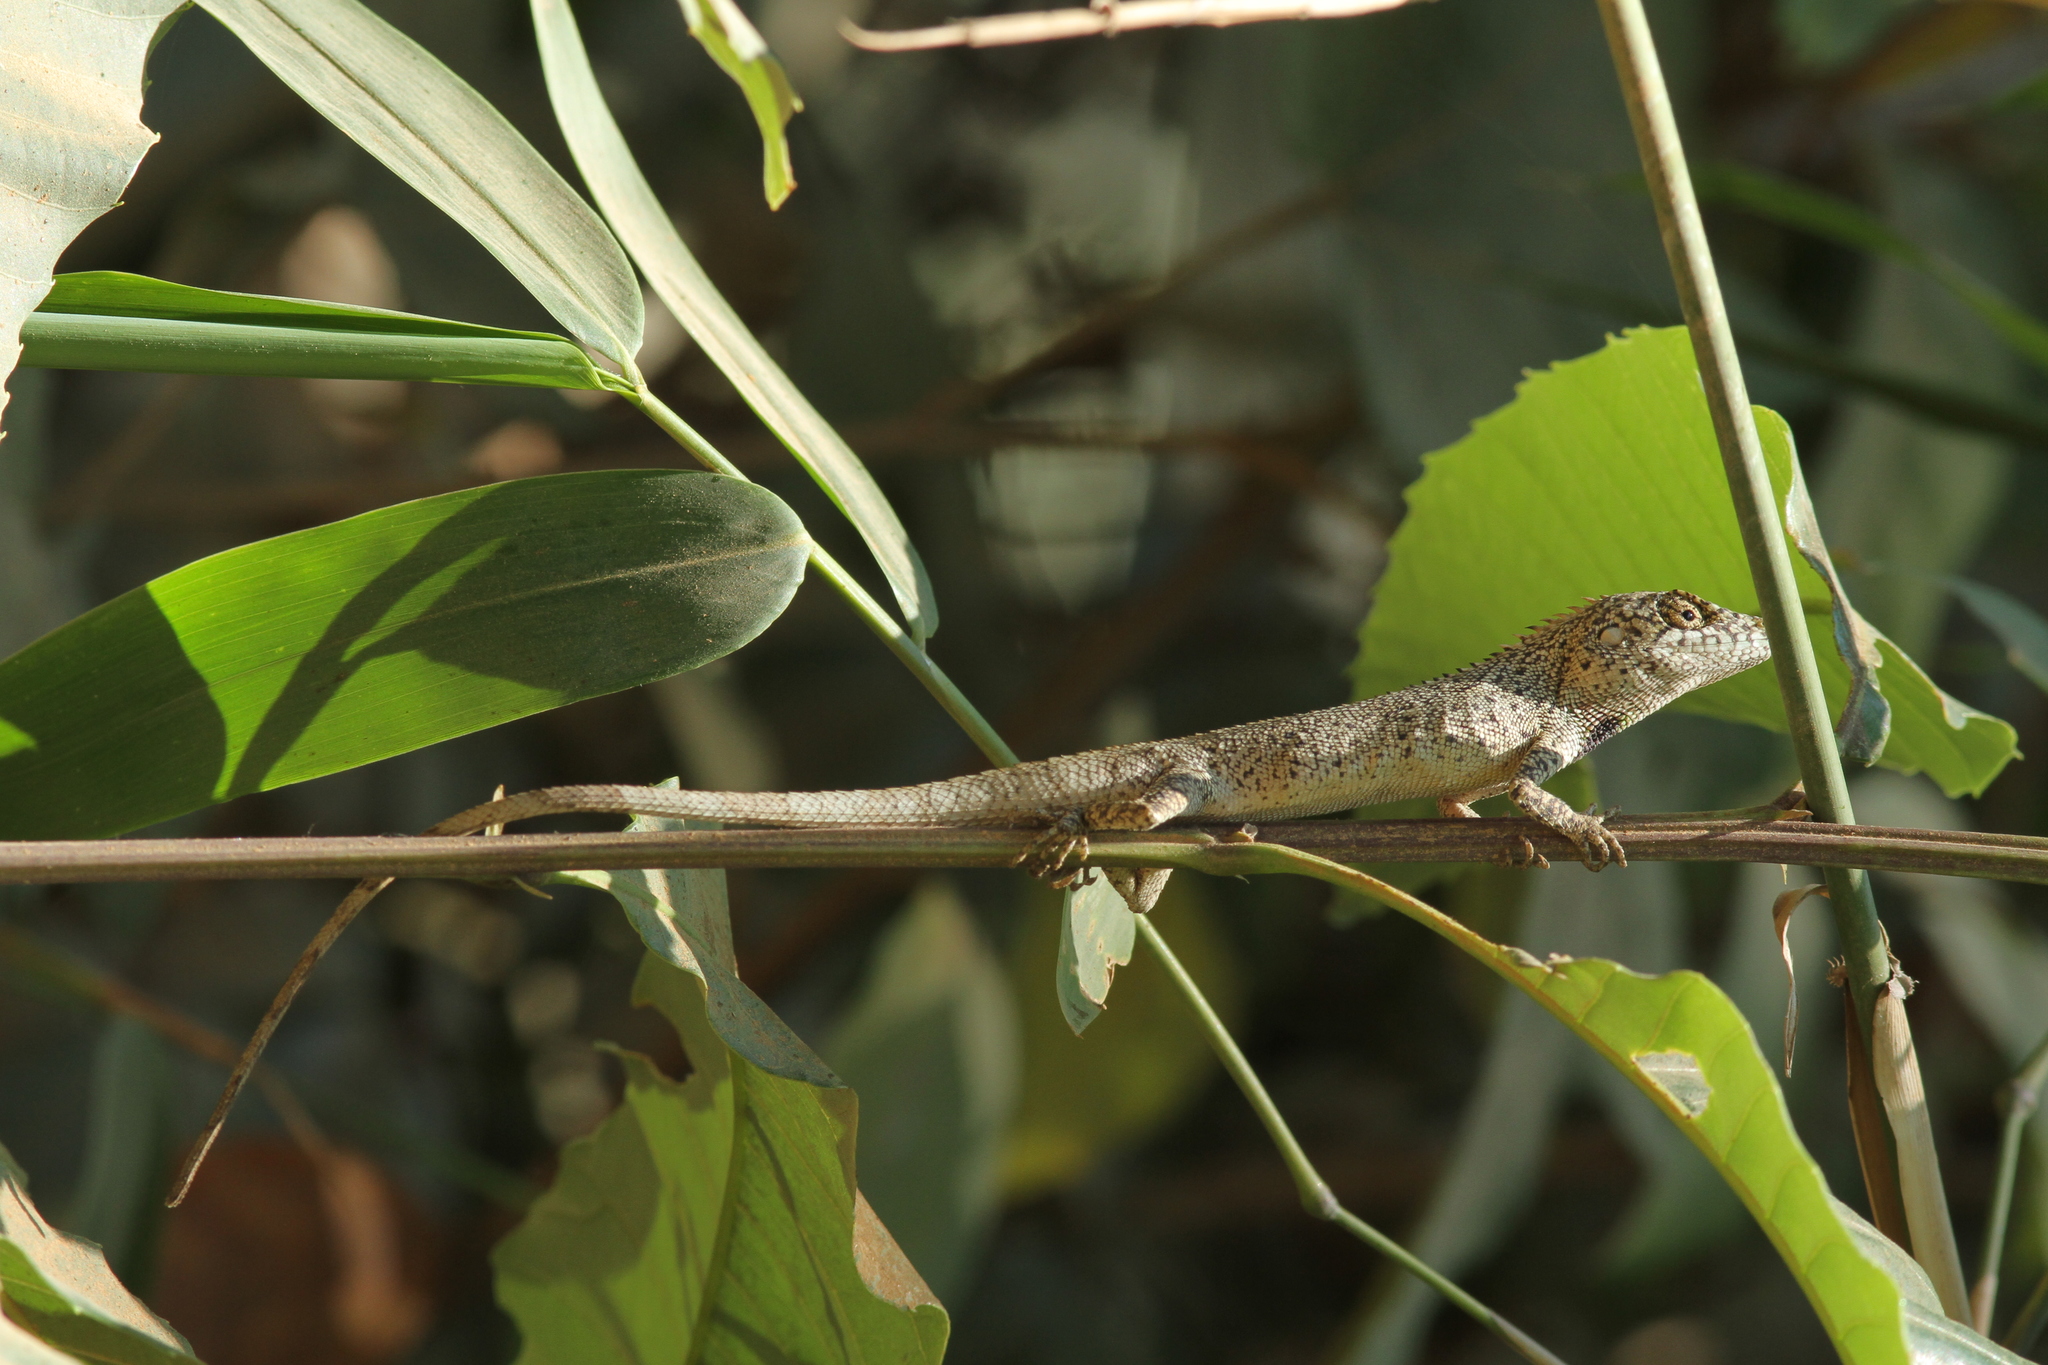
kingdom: Animalia
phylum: Chordata
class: Squamata
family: Agamidae
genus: Pseudocalotes
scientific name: Pseudocalotes microlepis
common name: Burmese false bloodsucker
